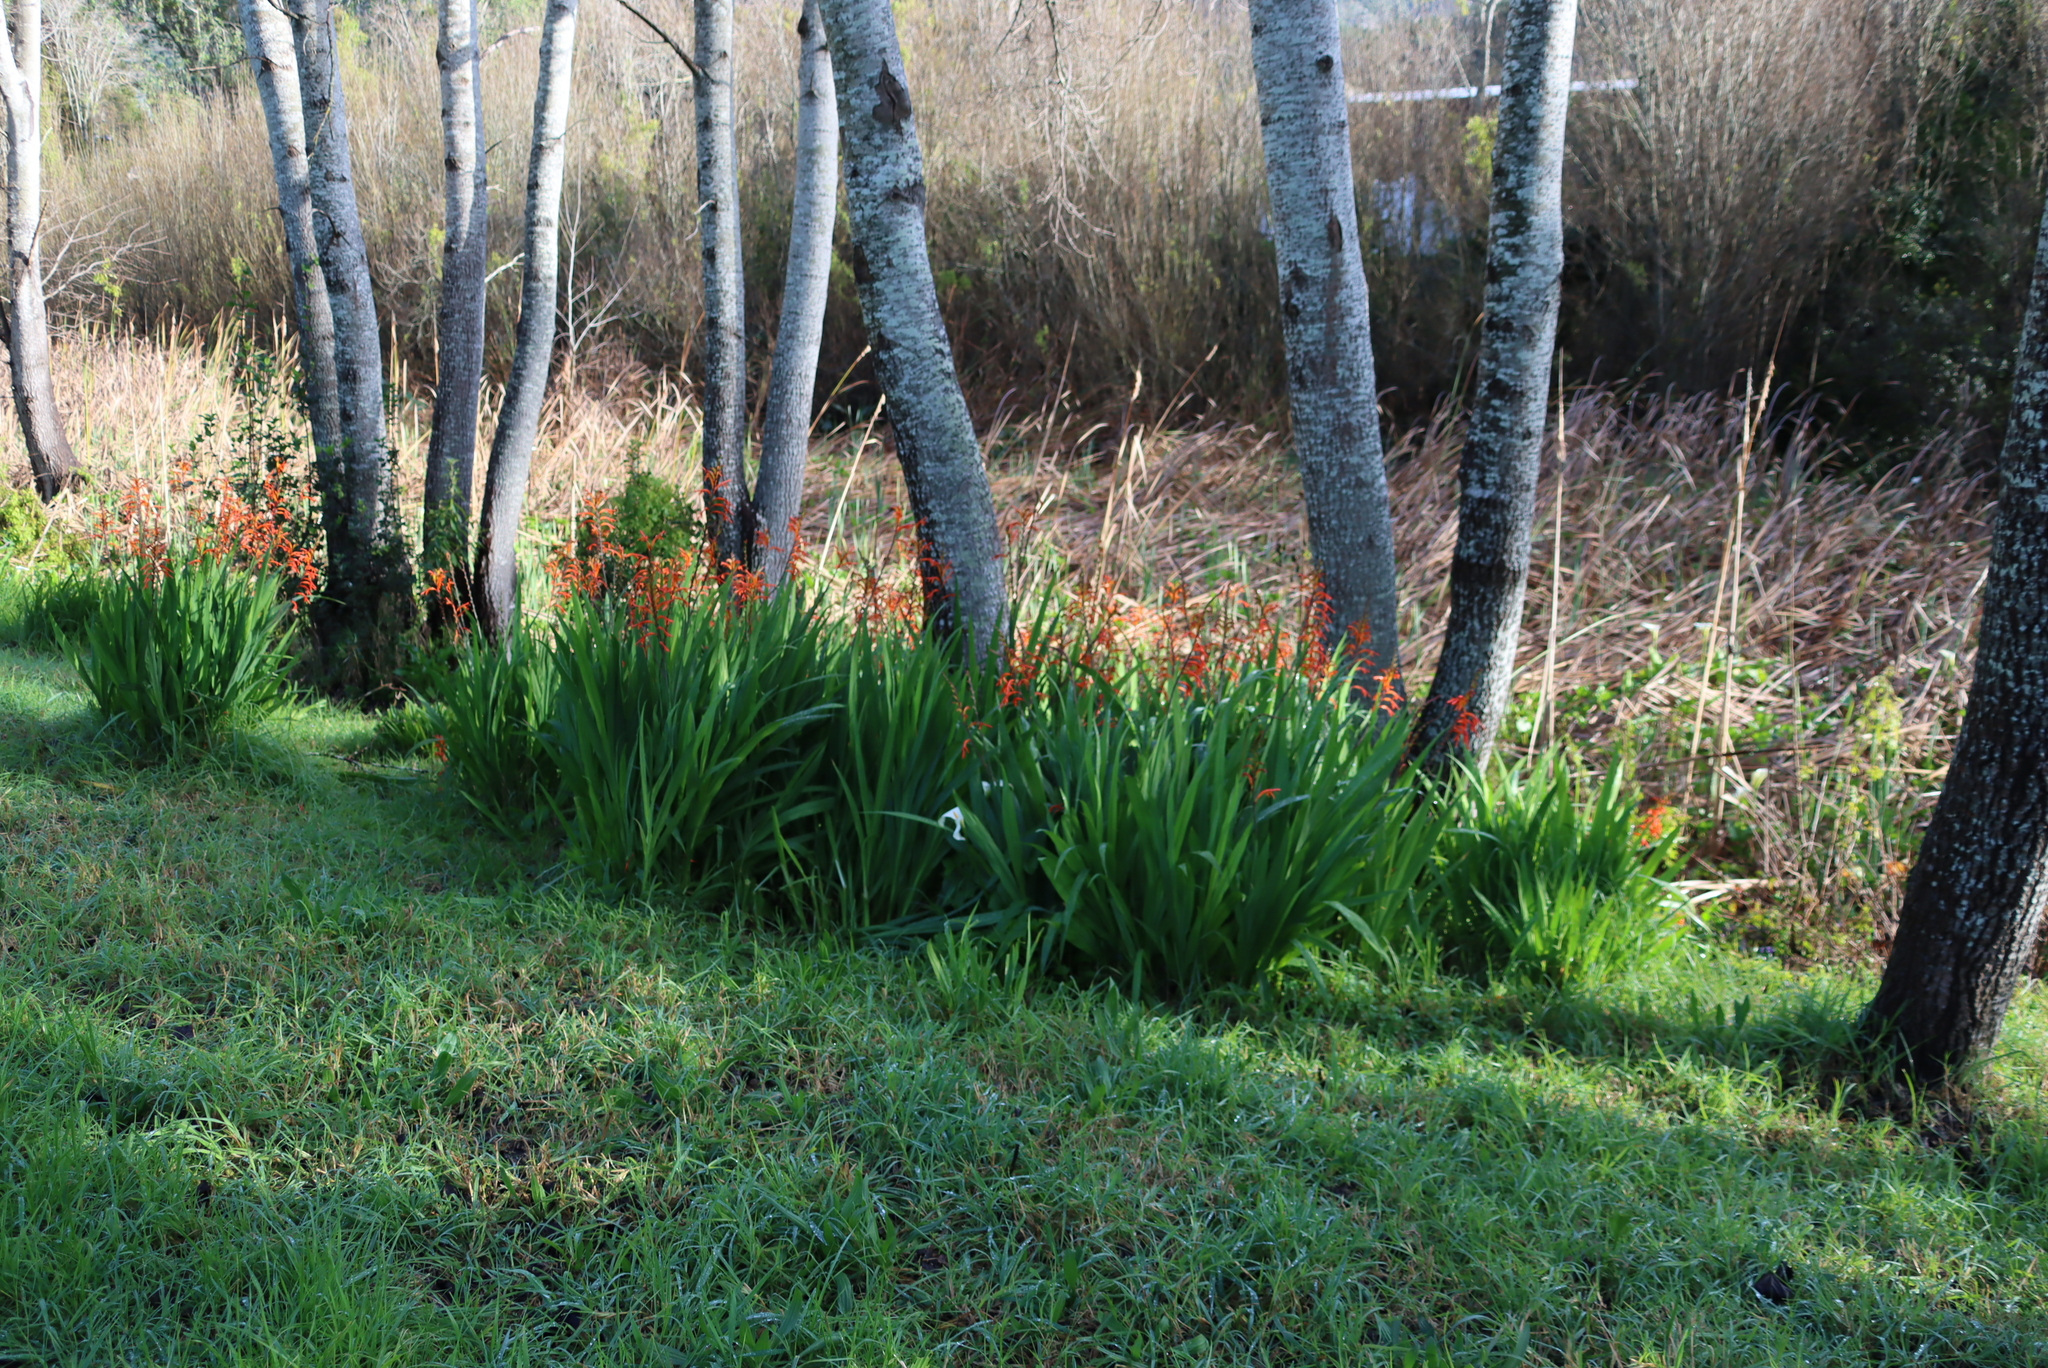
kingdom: Animalia
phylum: Chordata
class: Aves
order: Passeriformes
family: Nectariniidae
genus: Cinnyris
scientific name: Cinnyris chalybeus
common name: Southern double-collared sunbird
